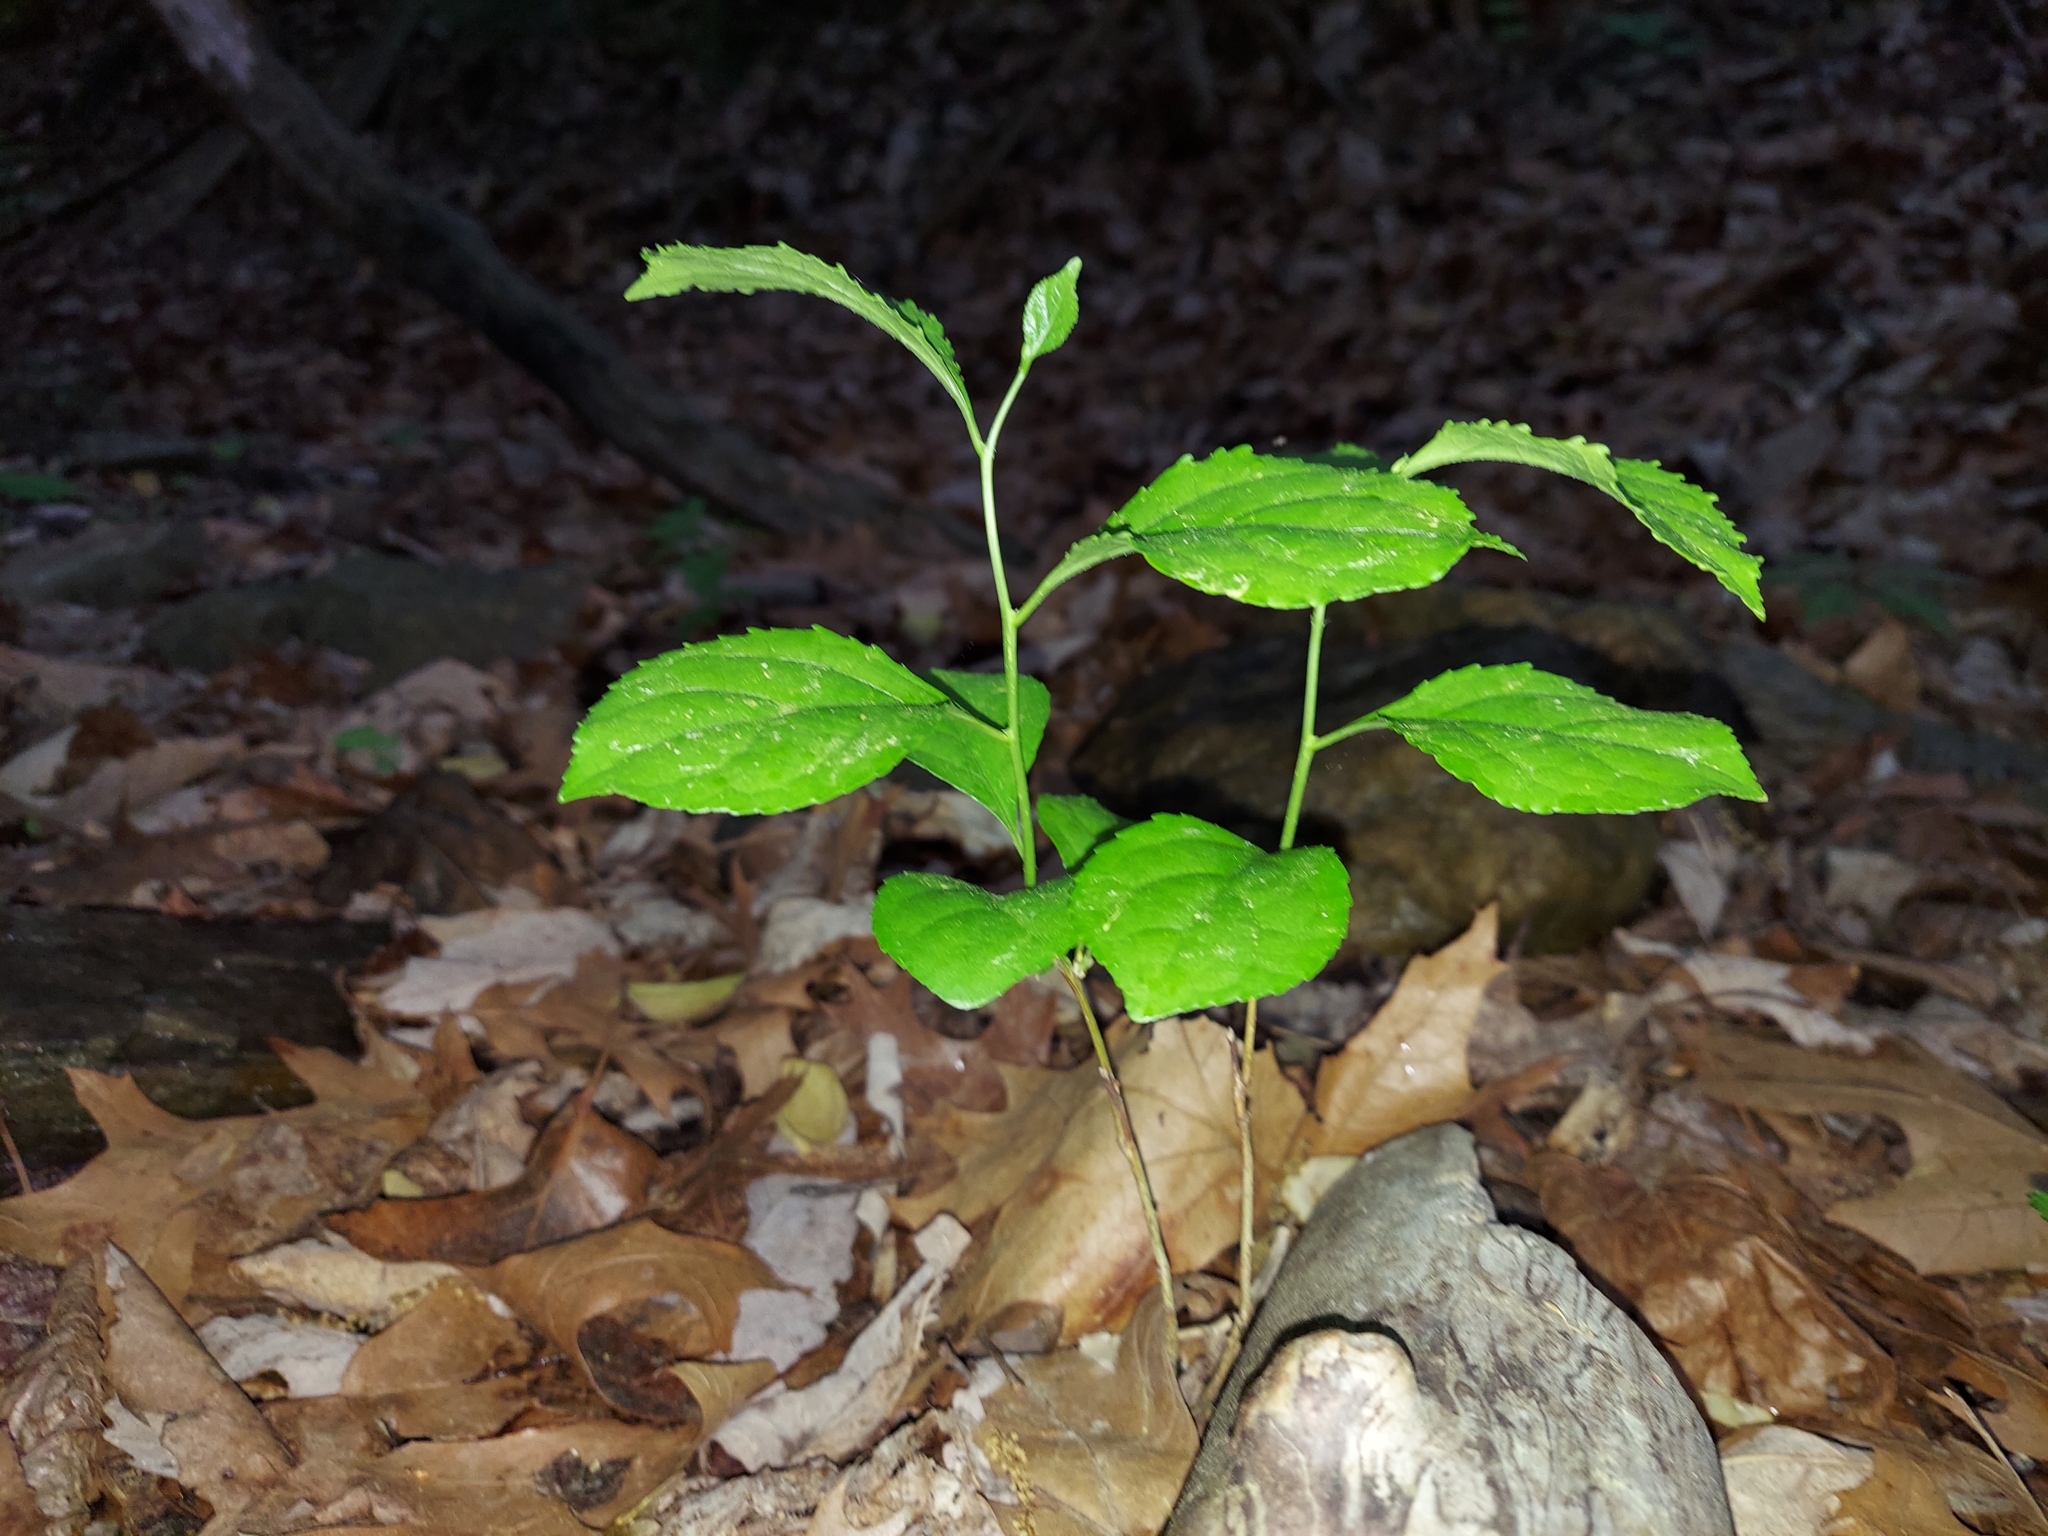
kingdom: Plantae
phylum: Tracheophyta
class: Magnoliopsida
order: Celastrales
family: Celastraceae
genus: Celastrus
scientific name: Celastrus orbiculatus
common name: Oriental bittersweet
